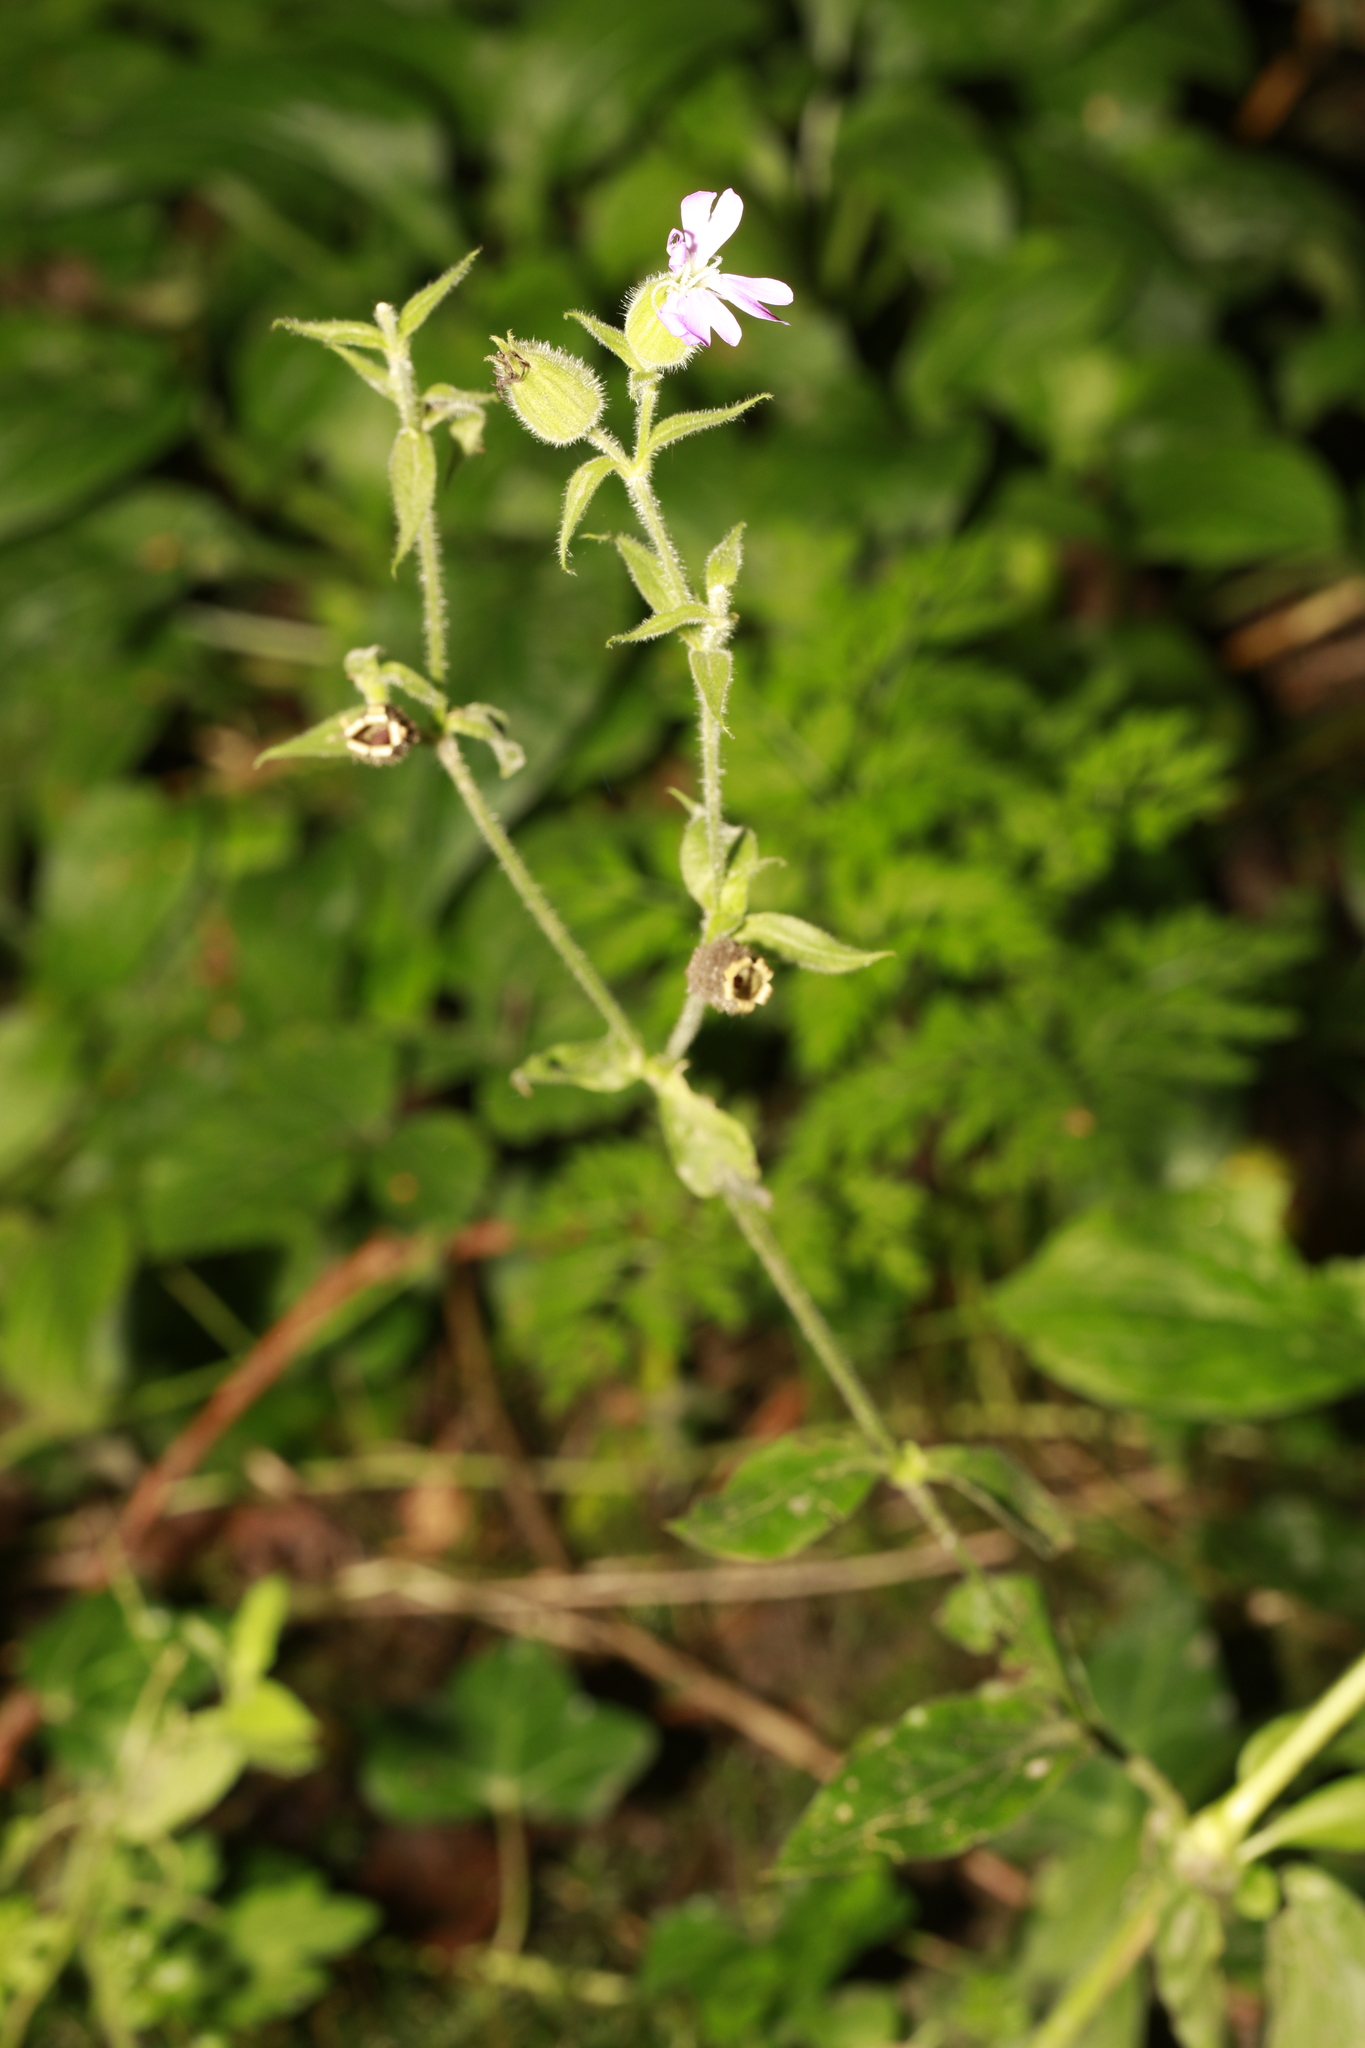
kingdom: Plantae
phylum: Tracheophyta
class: Magnoliopsida
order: Caryophyllales
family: Caryophyllaceae
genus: Silene
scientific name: Silene dioica
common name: Red campion
